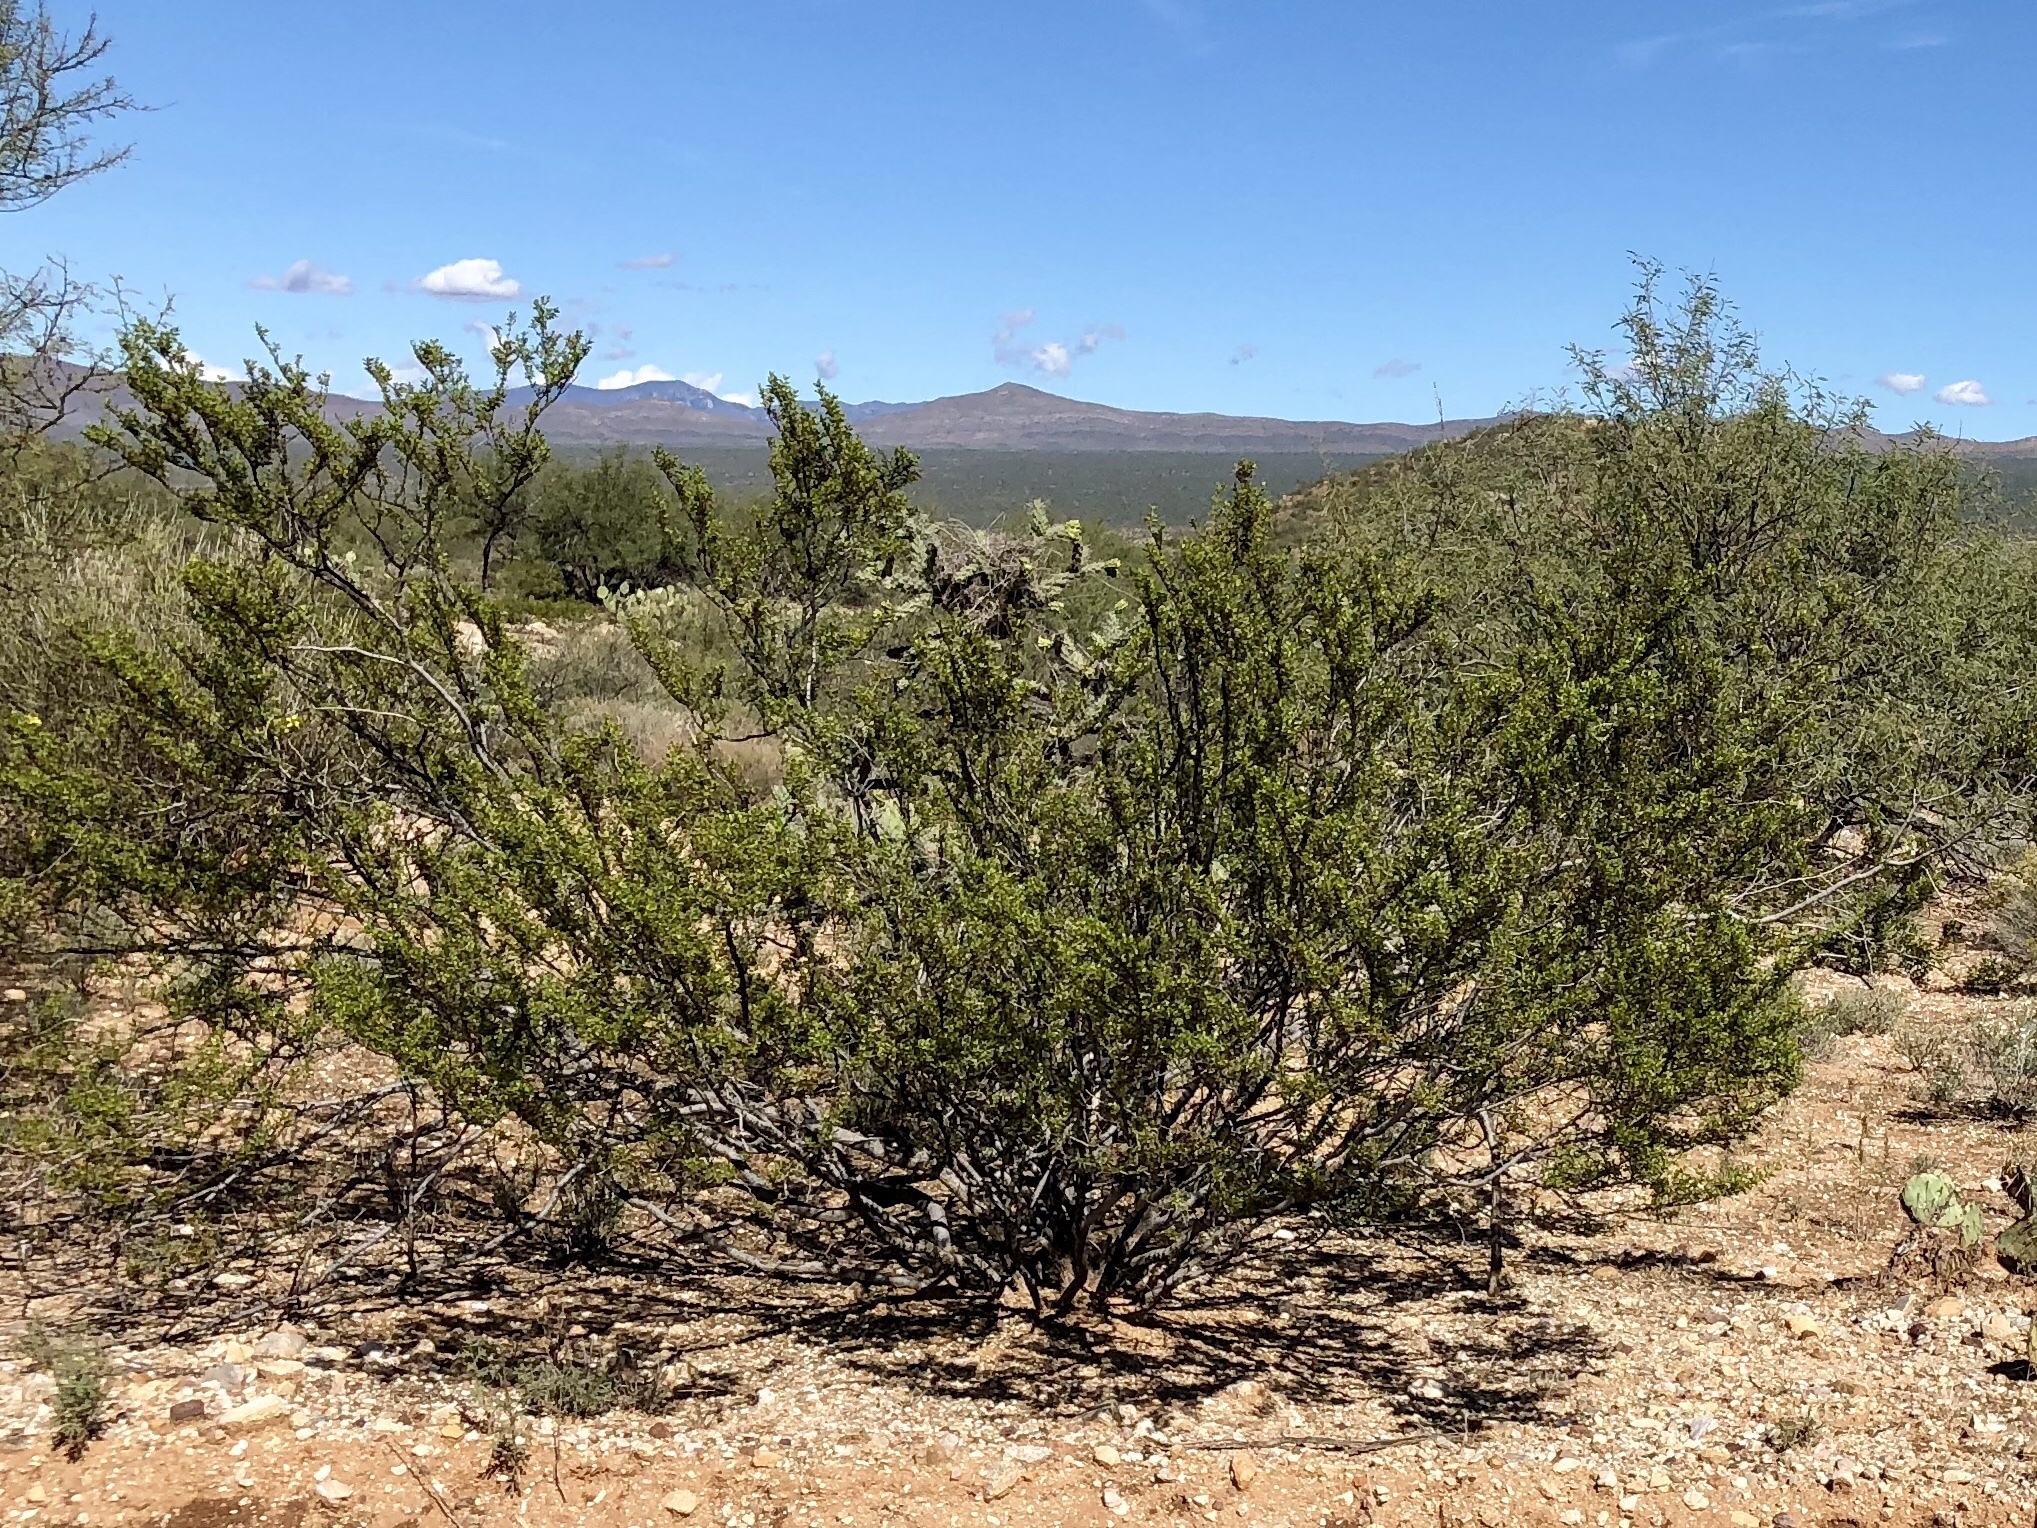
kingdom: Plantae
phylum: Tracheophyta
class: Magnoliopsida
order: Zygophyllales
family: Zygophyllaceae
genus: Larrea
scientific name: Larrea tridentata
